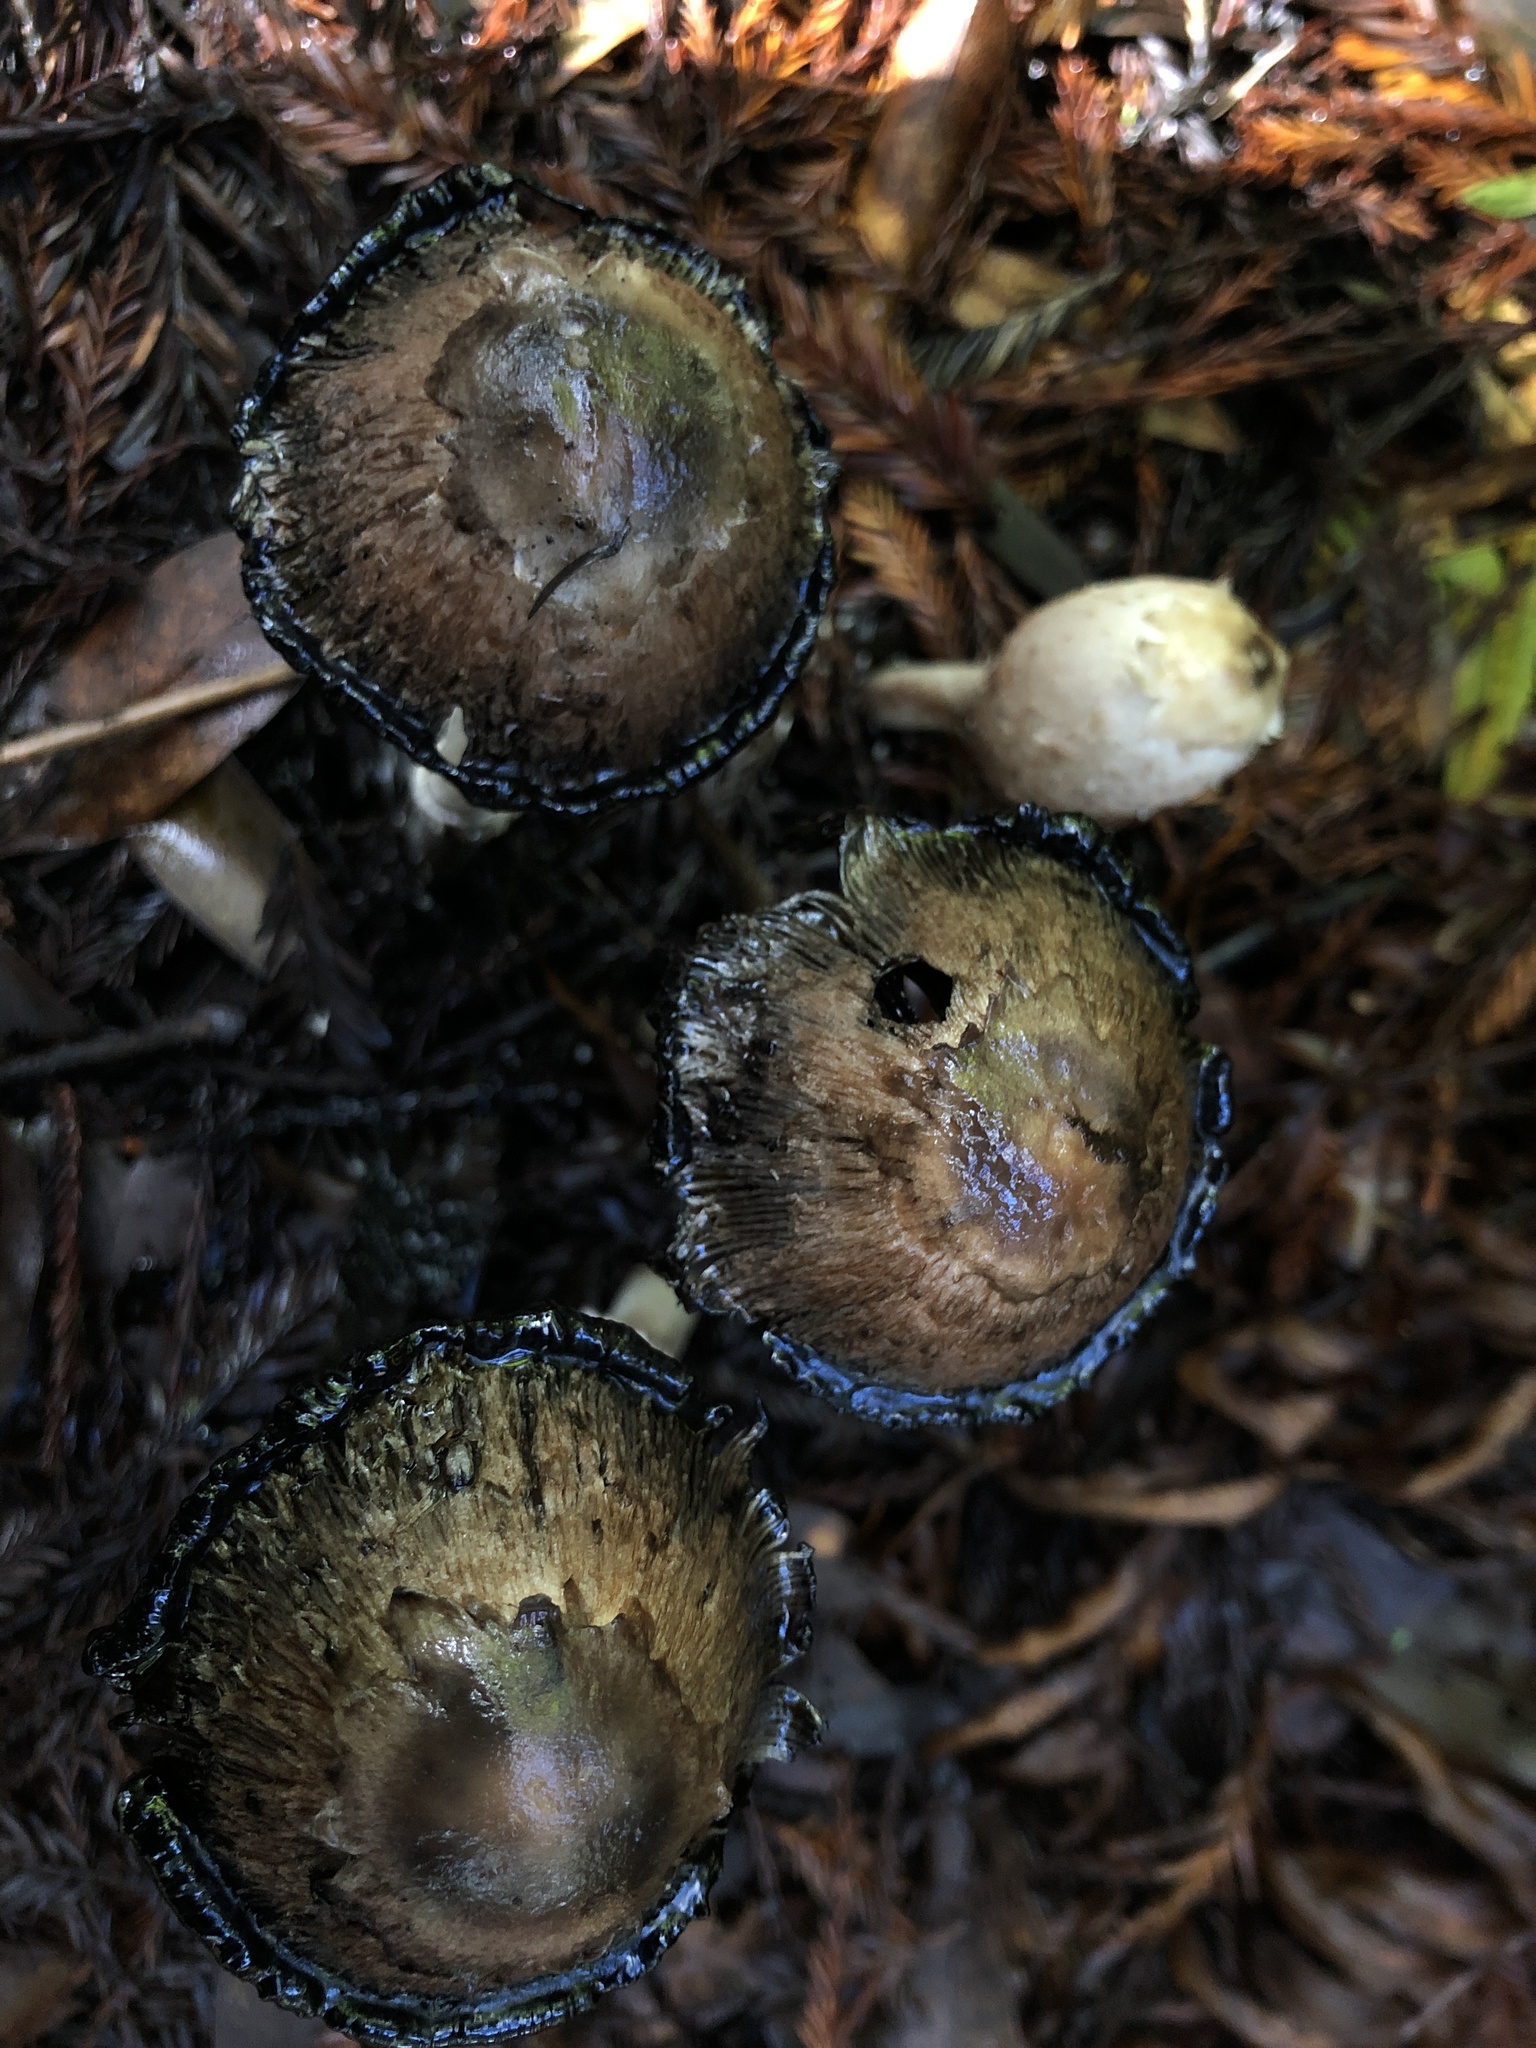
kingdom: Fungi
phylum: Basidiomycota
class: Agaricomycetes
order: Agaricales
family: Agaricaceae
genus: Coprinus
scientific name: Coprinus comatus
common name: Lawyer's wig
